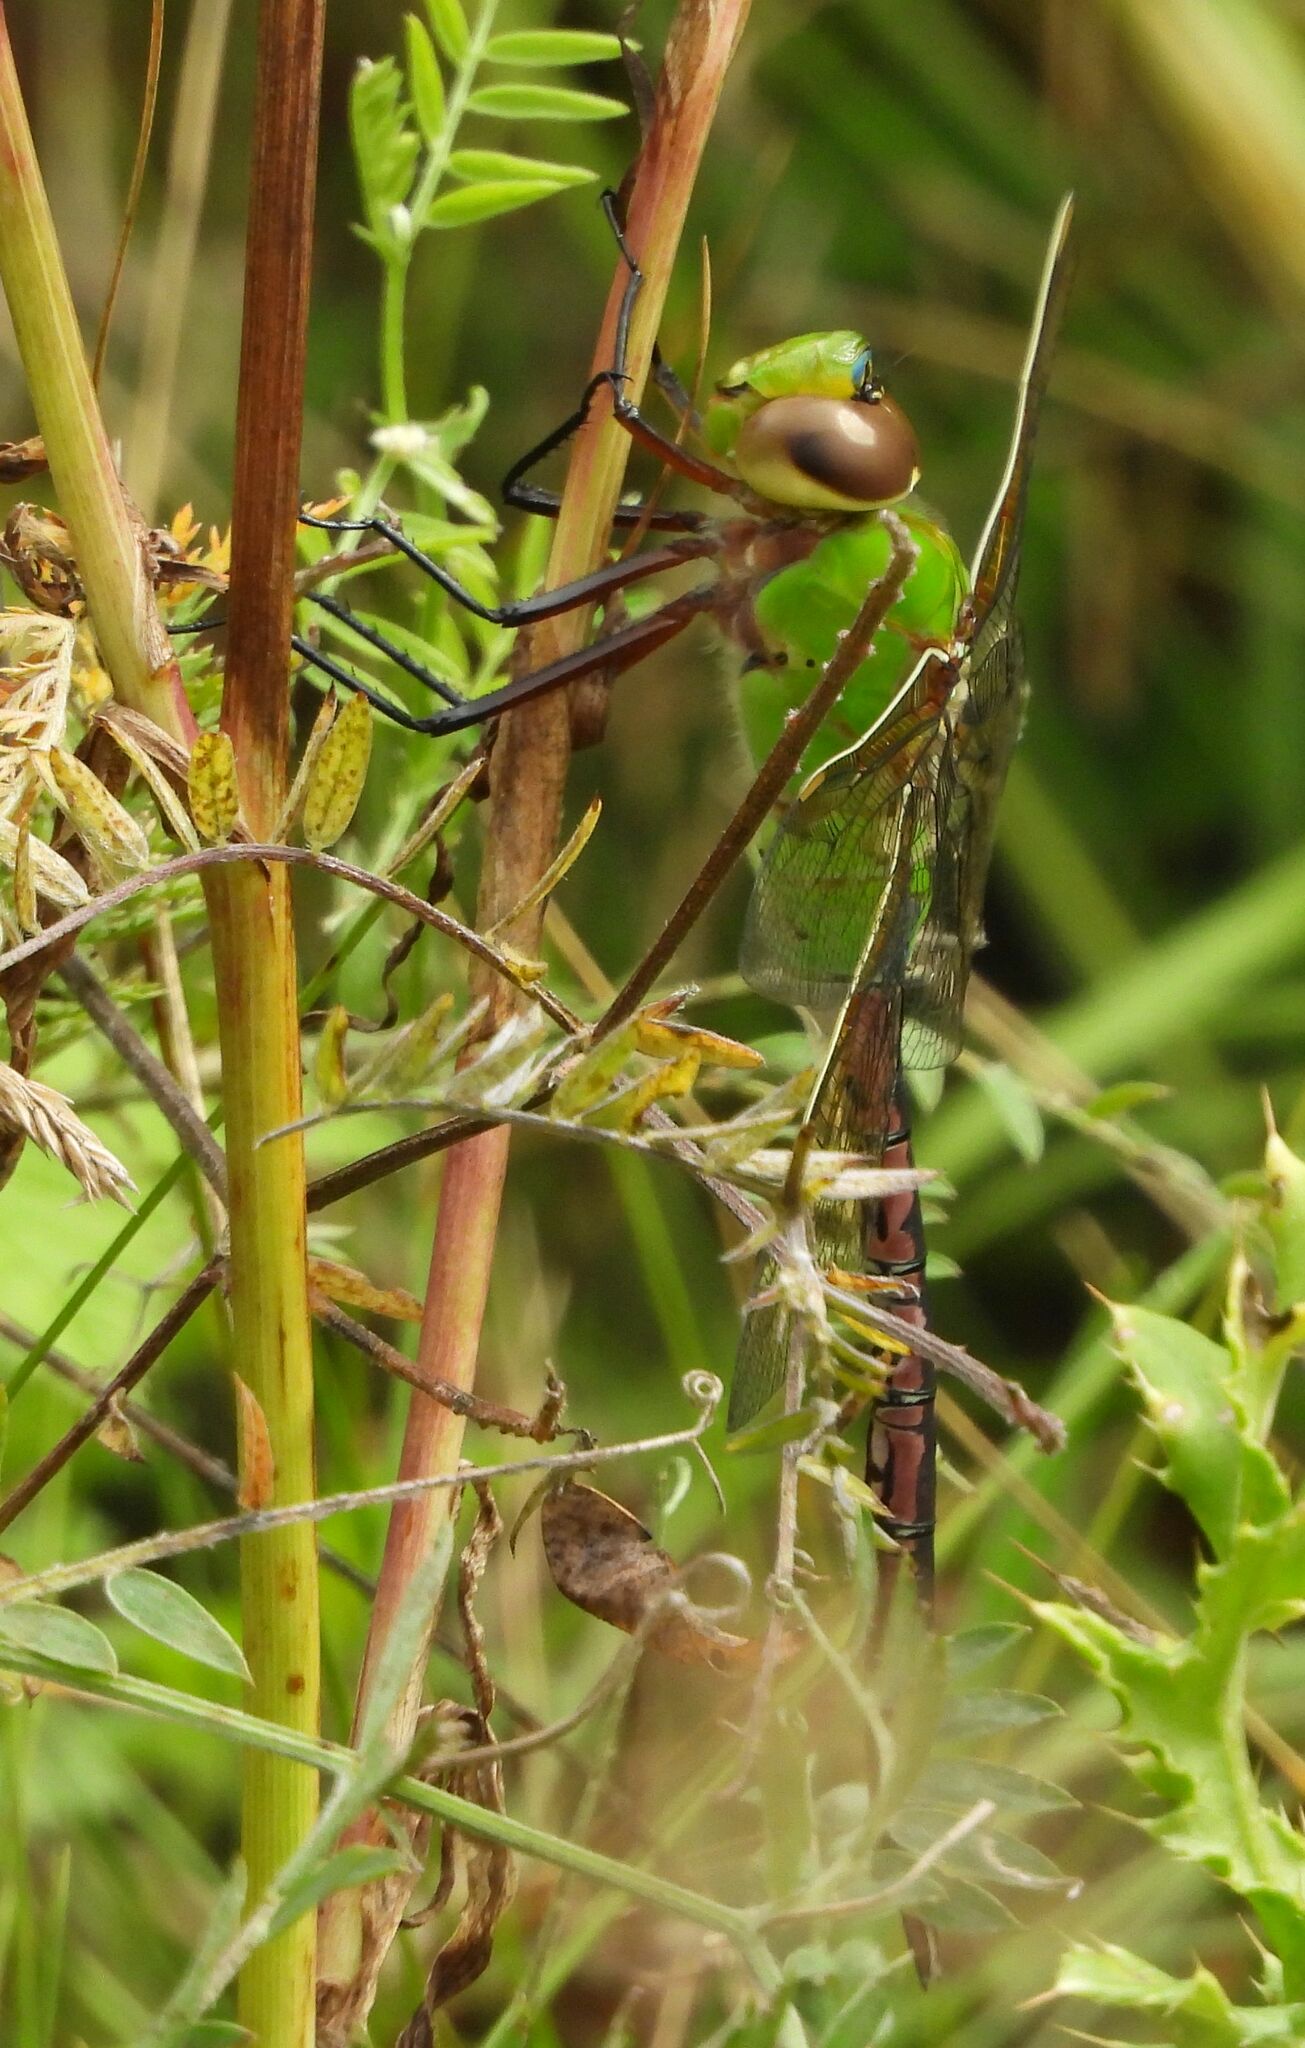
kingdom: Animalia
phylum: Arthropoda
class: Insecta
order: Odonata
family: Aeshnidae
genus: Anax
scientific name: Anax junius
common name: Common green darner
